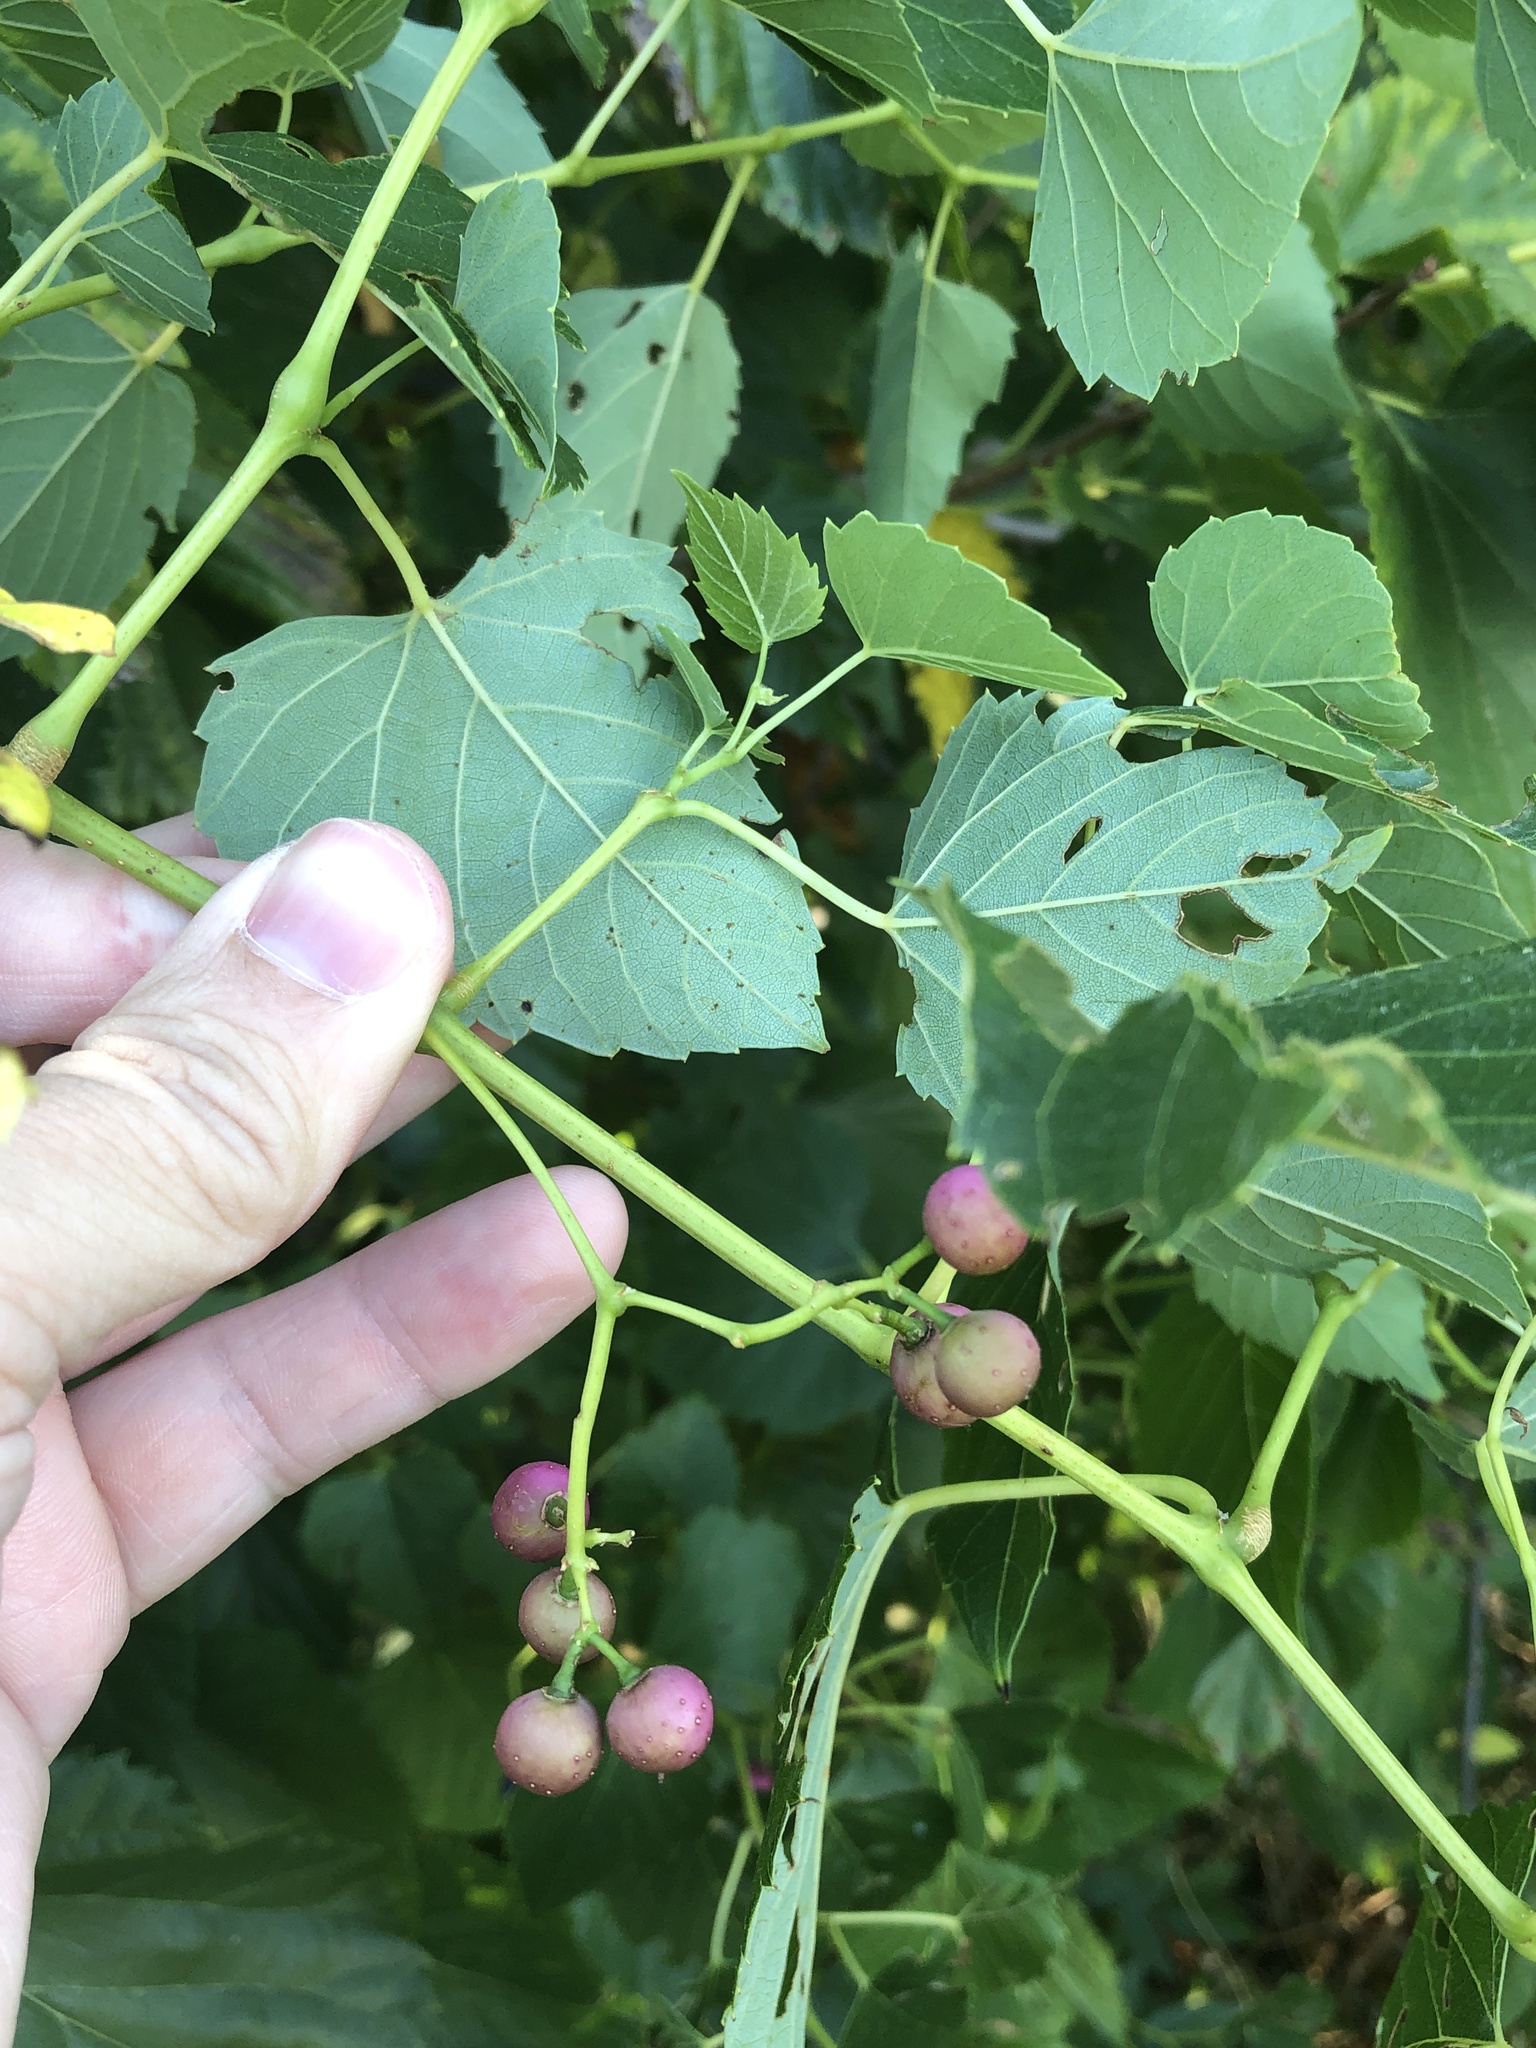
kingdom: Plantae
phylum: Tracheophyta
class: Magnoliopsida
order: Vitales
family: Vitaceae
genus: Ampelopsis
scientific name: Ampelopsis cordata
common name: Heart-leaf ampelopsis
